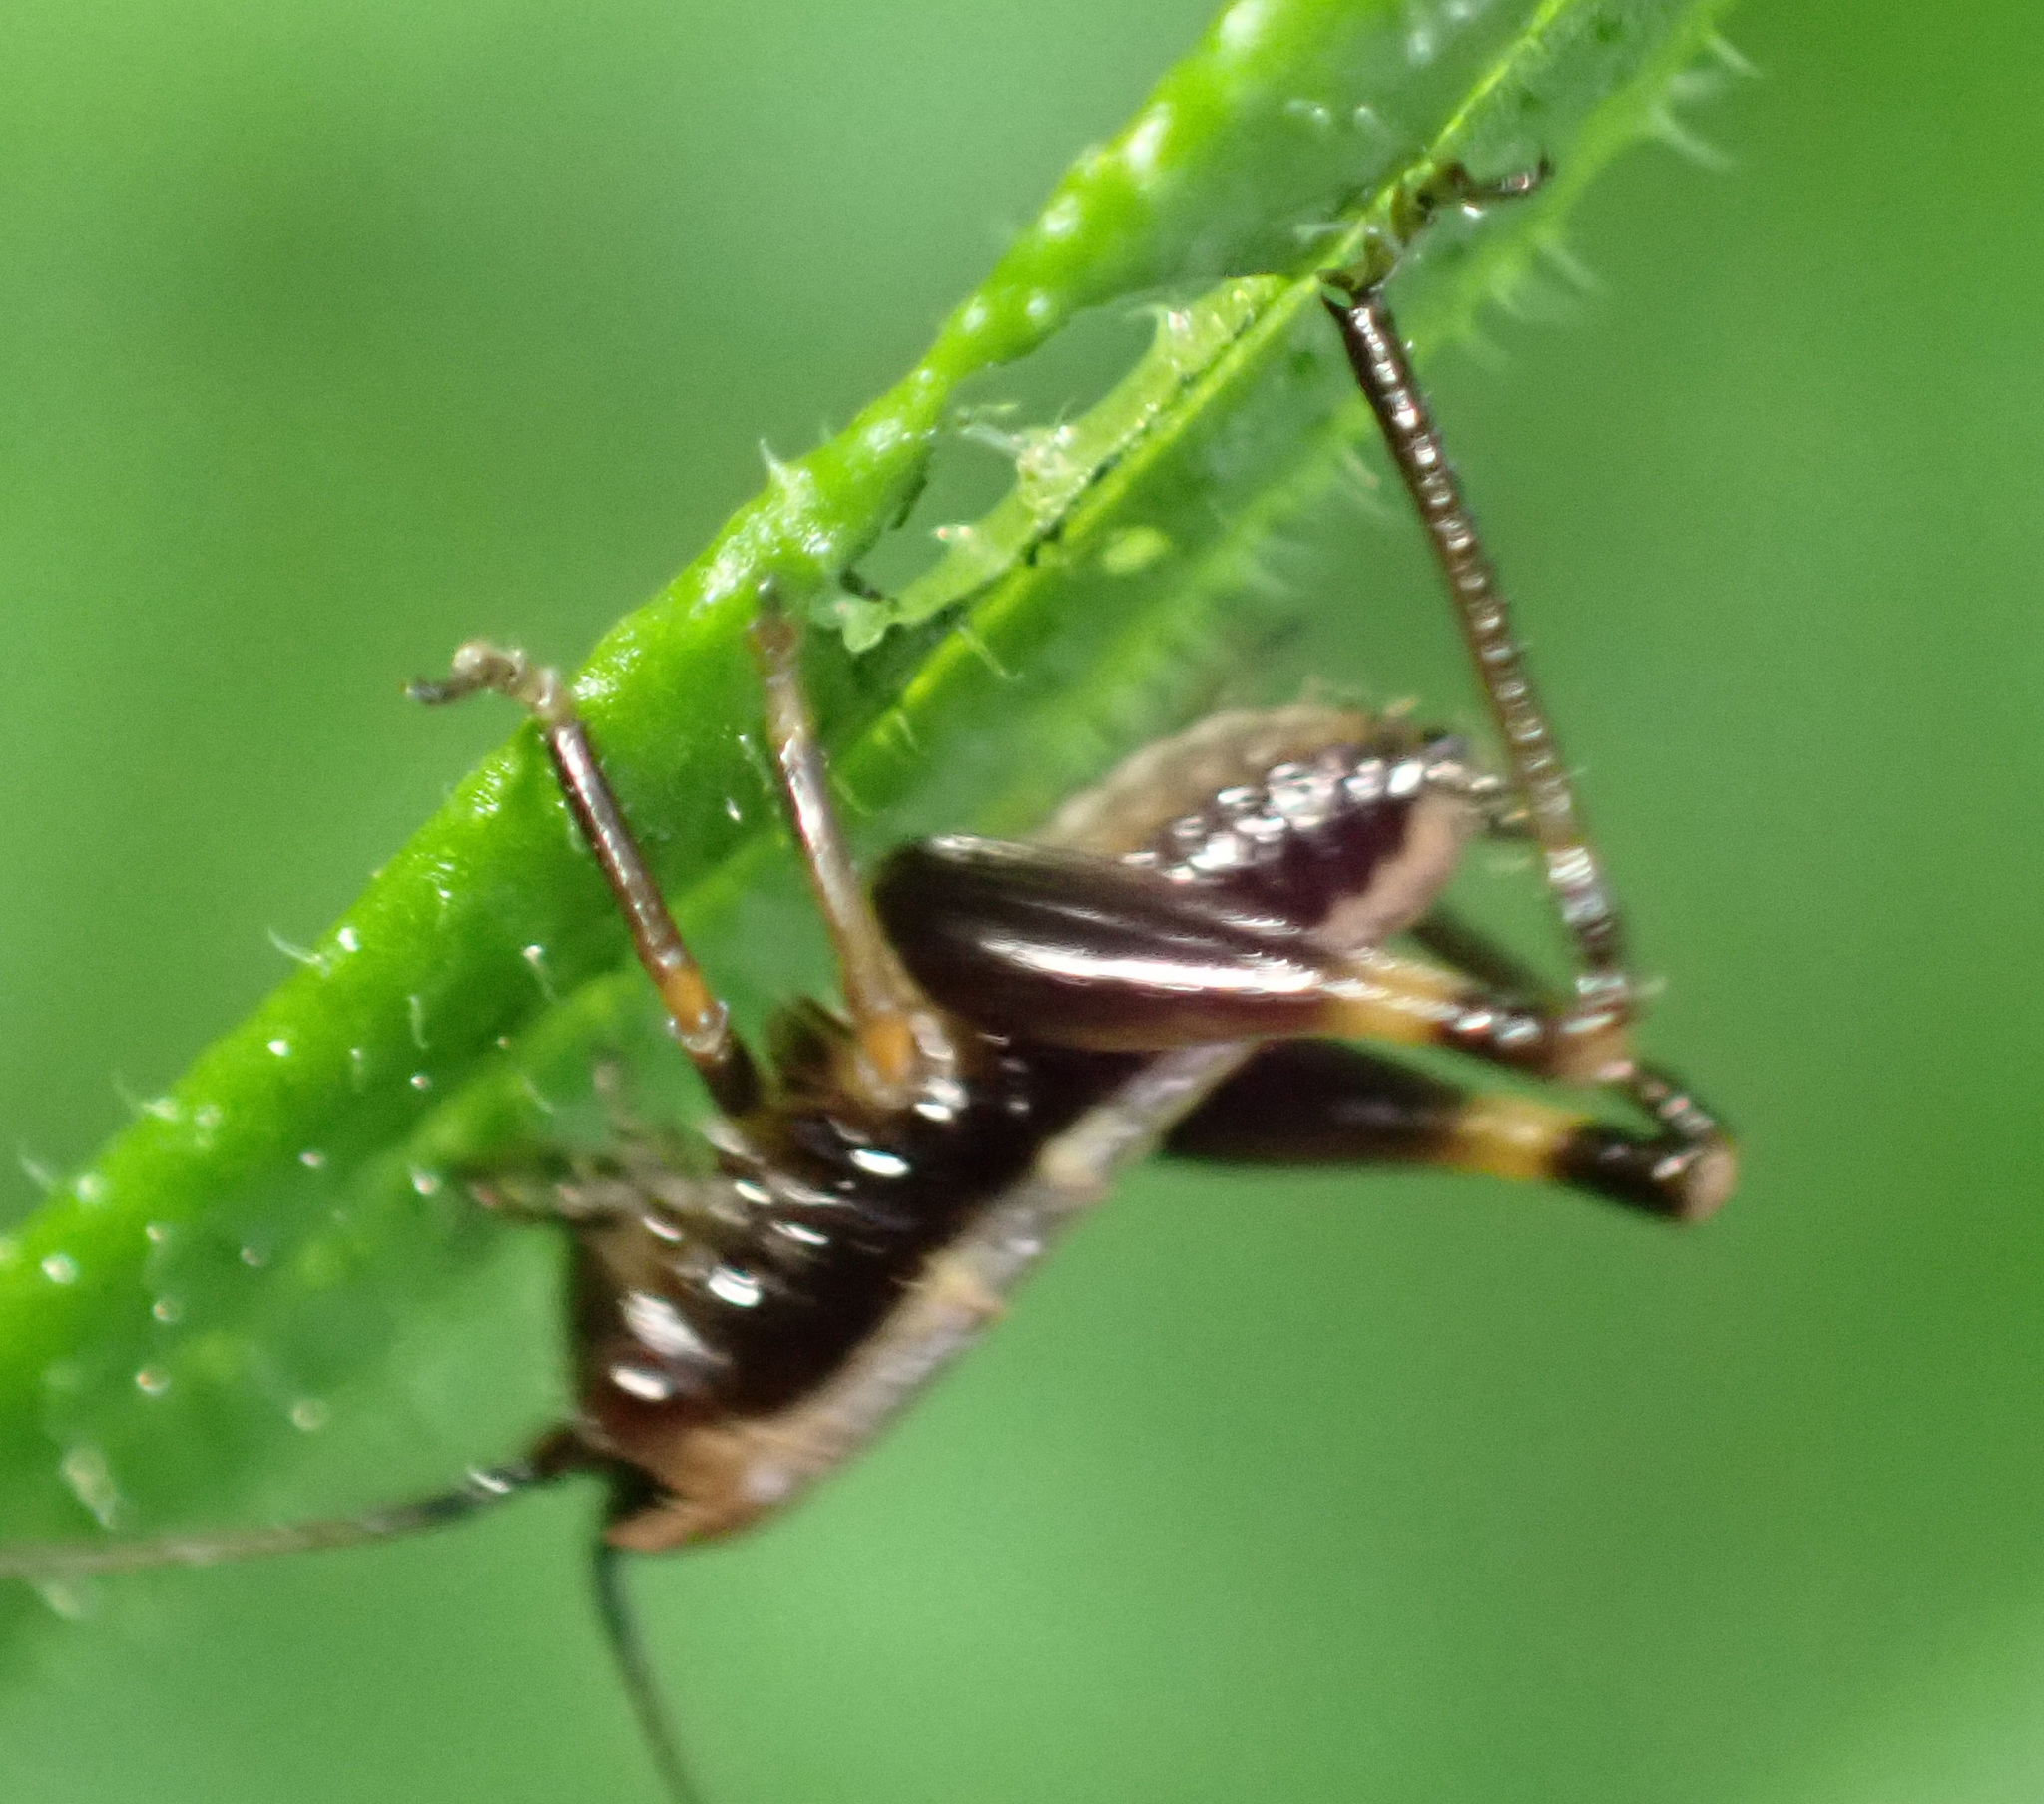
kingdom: Animalia
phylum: Arthropoda
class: Insecta
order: Orthoptera
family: Tettigoniidae
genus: Pholidoptera
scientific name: Pholidoptera griseoaptera
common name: Dark bush-cricket
